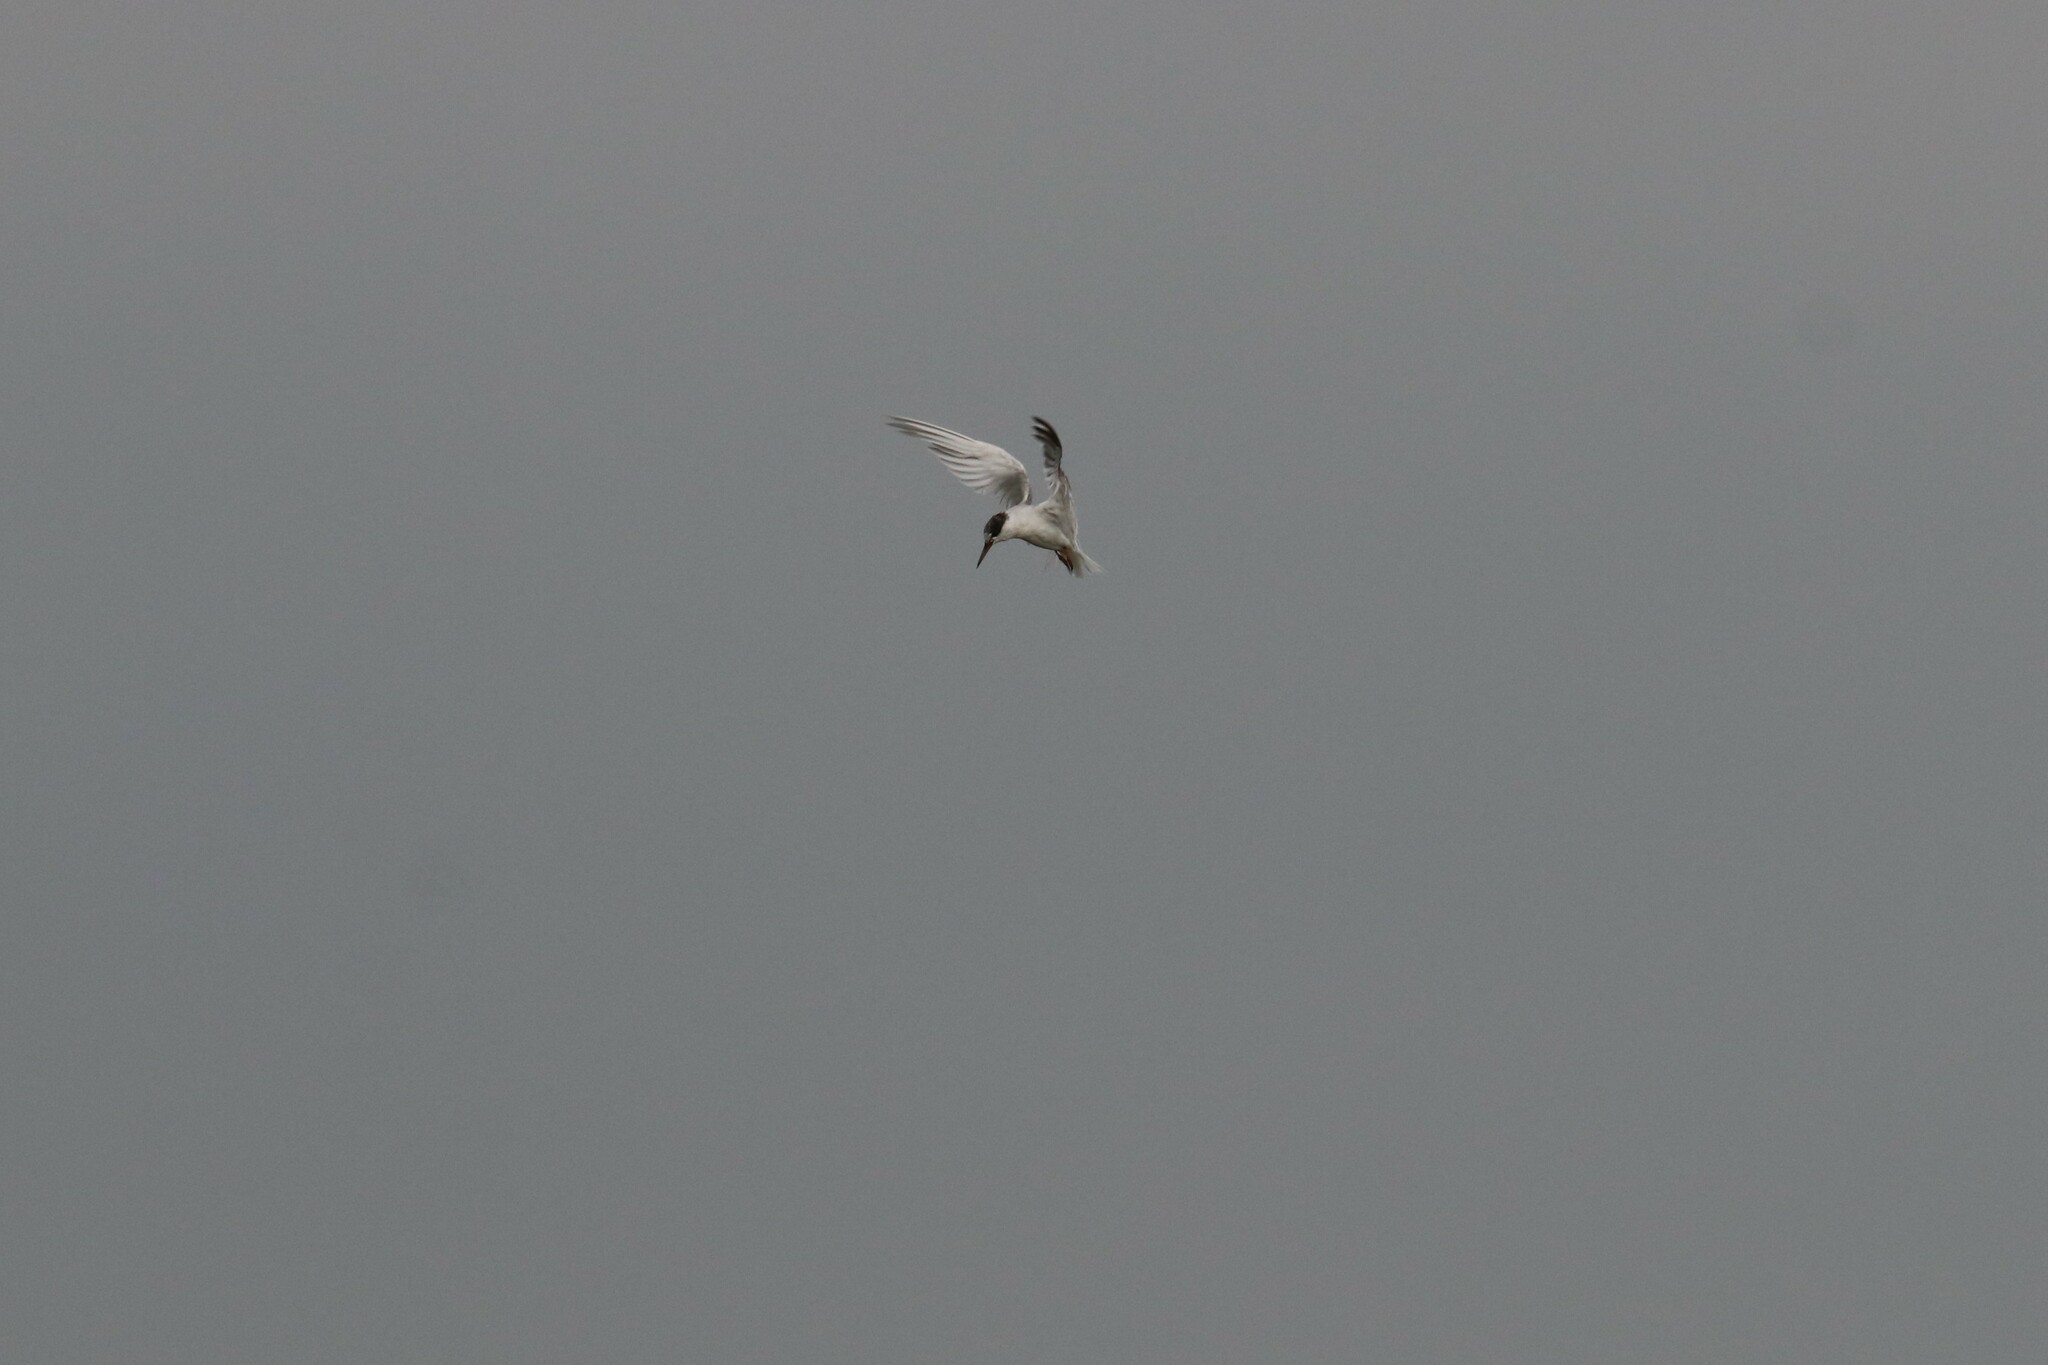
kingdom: Animalia
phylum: Chordata
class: Aves
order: Charadriiformes
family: Laridae
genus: Sterna
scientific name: Sterna hirundo
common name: Common tern
